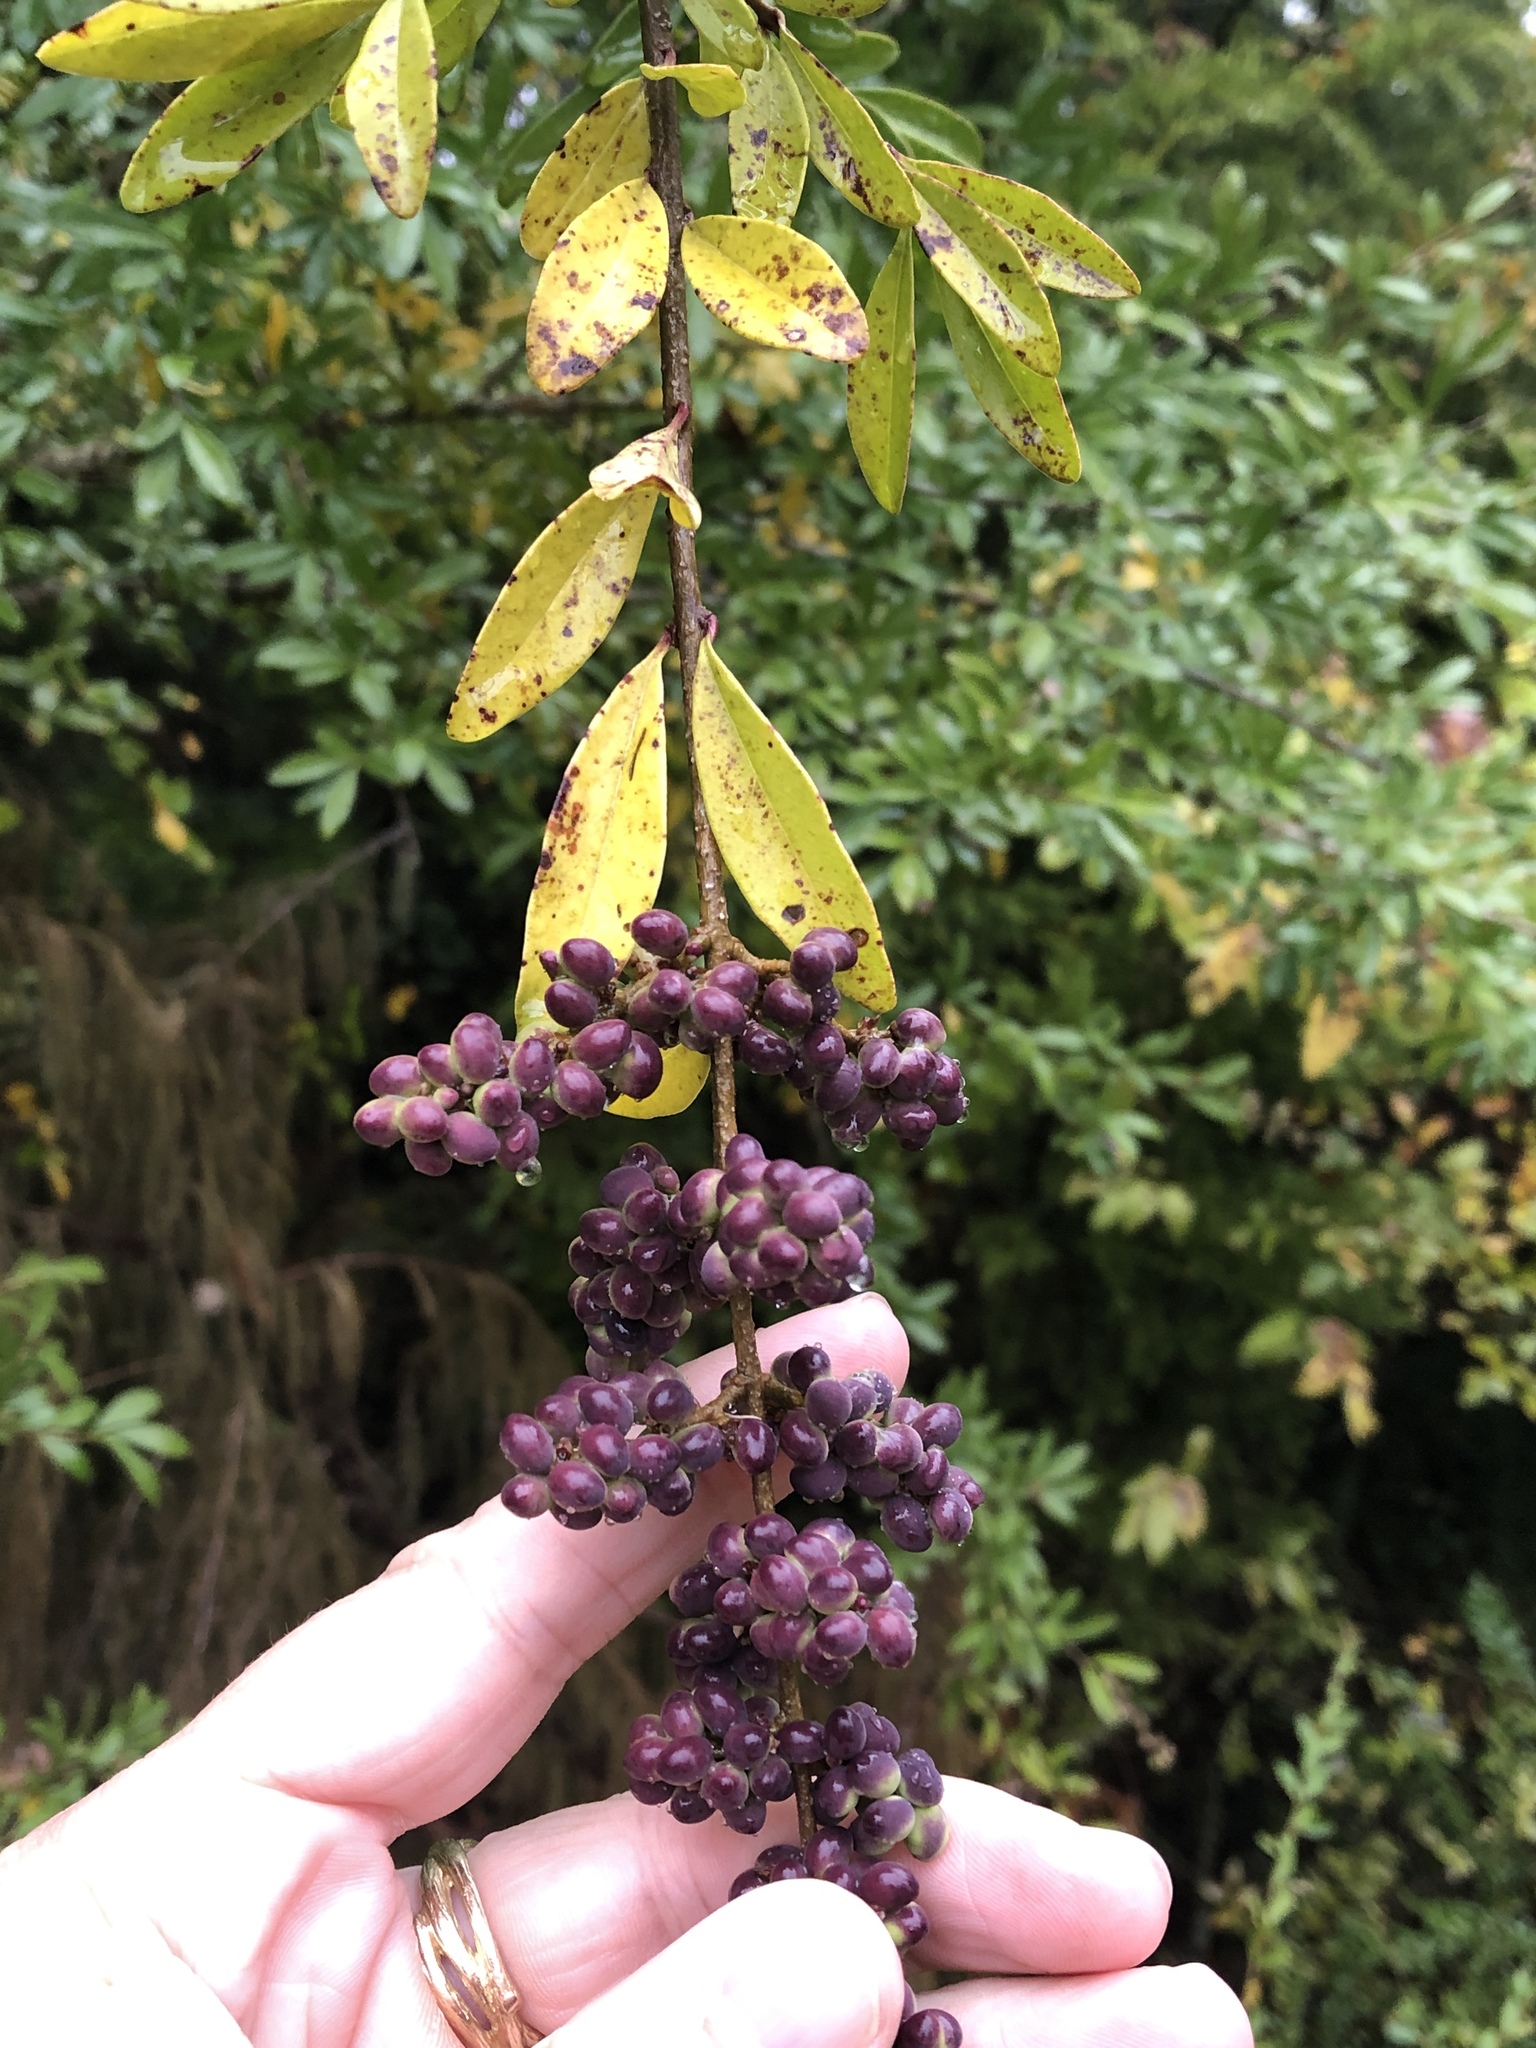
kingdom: Plantae
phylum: Tracheophyta
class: Magnoliopsida
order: Lamiales
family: Oleaceae
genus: Ligustrum
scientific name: Ligustrum quihoui
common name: Waxyleaf privet
